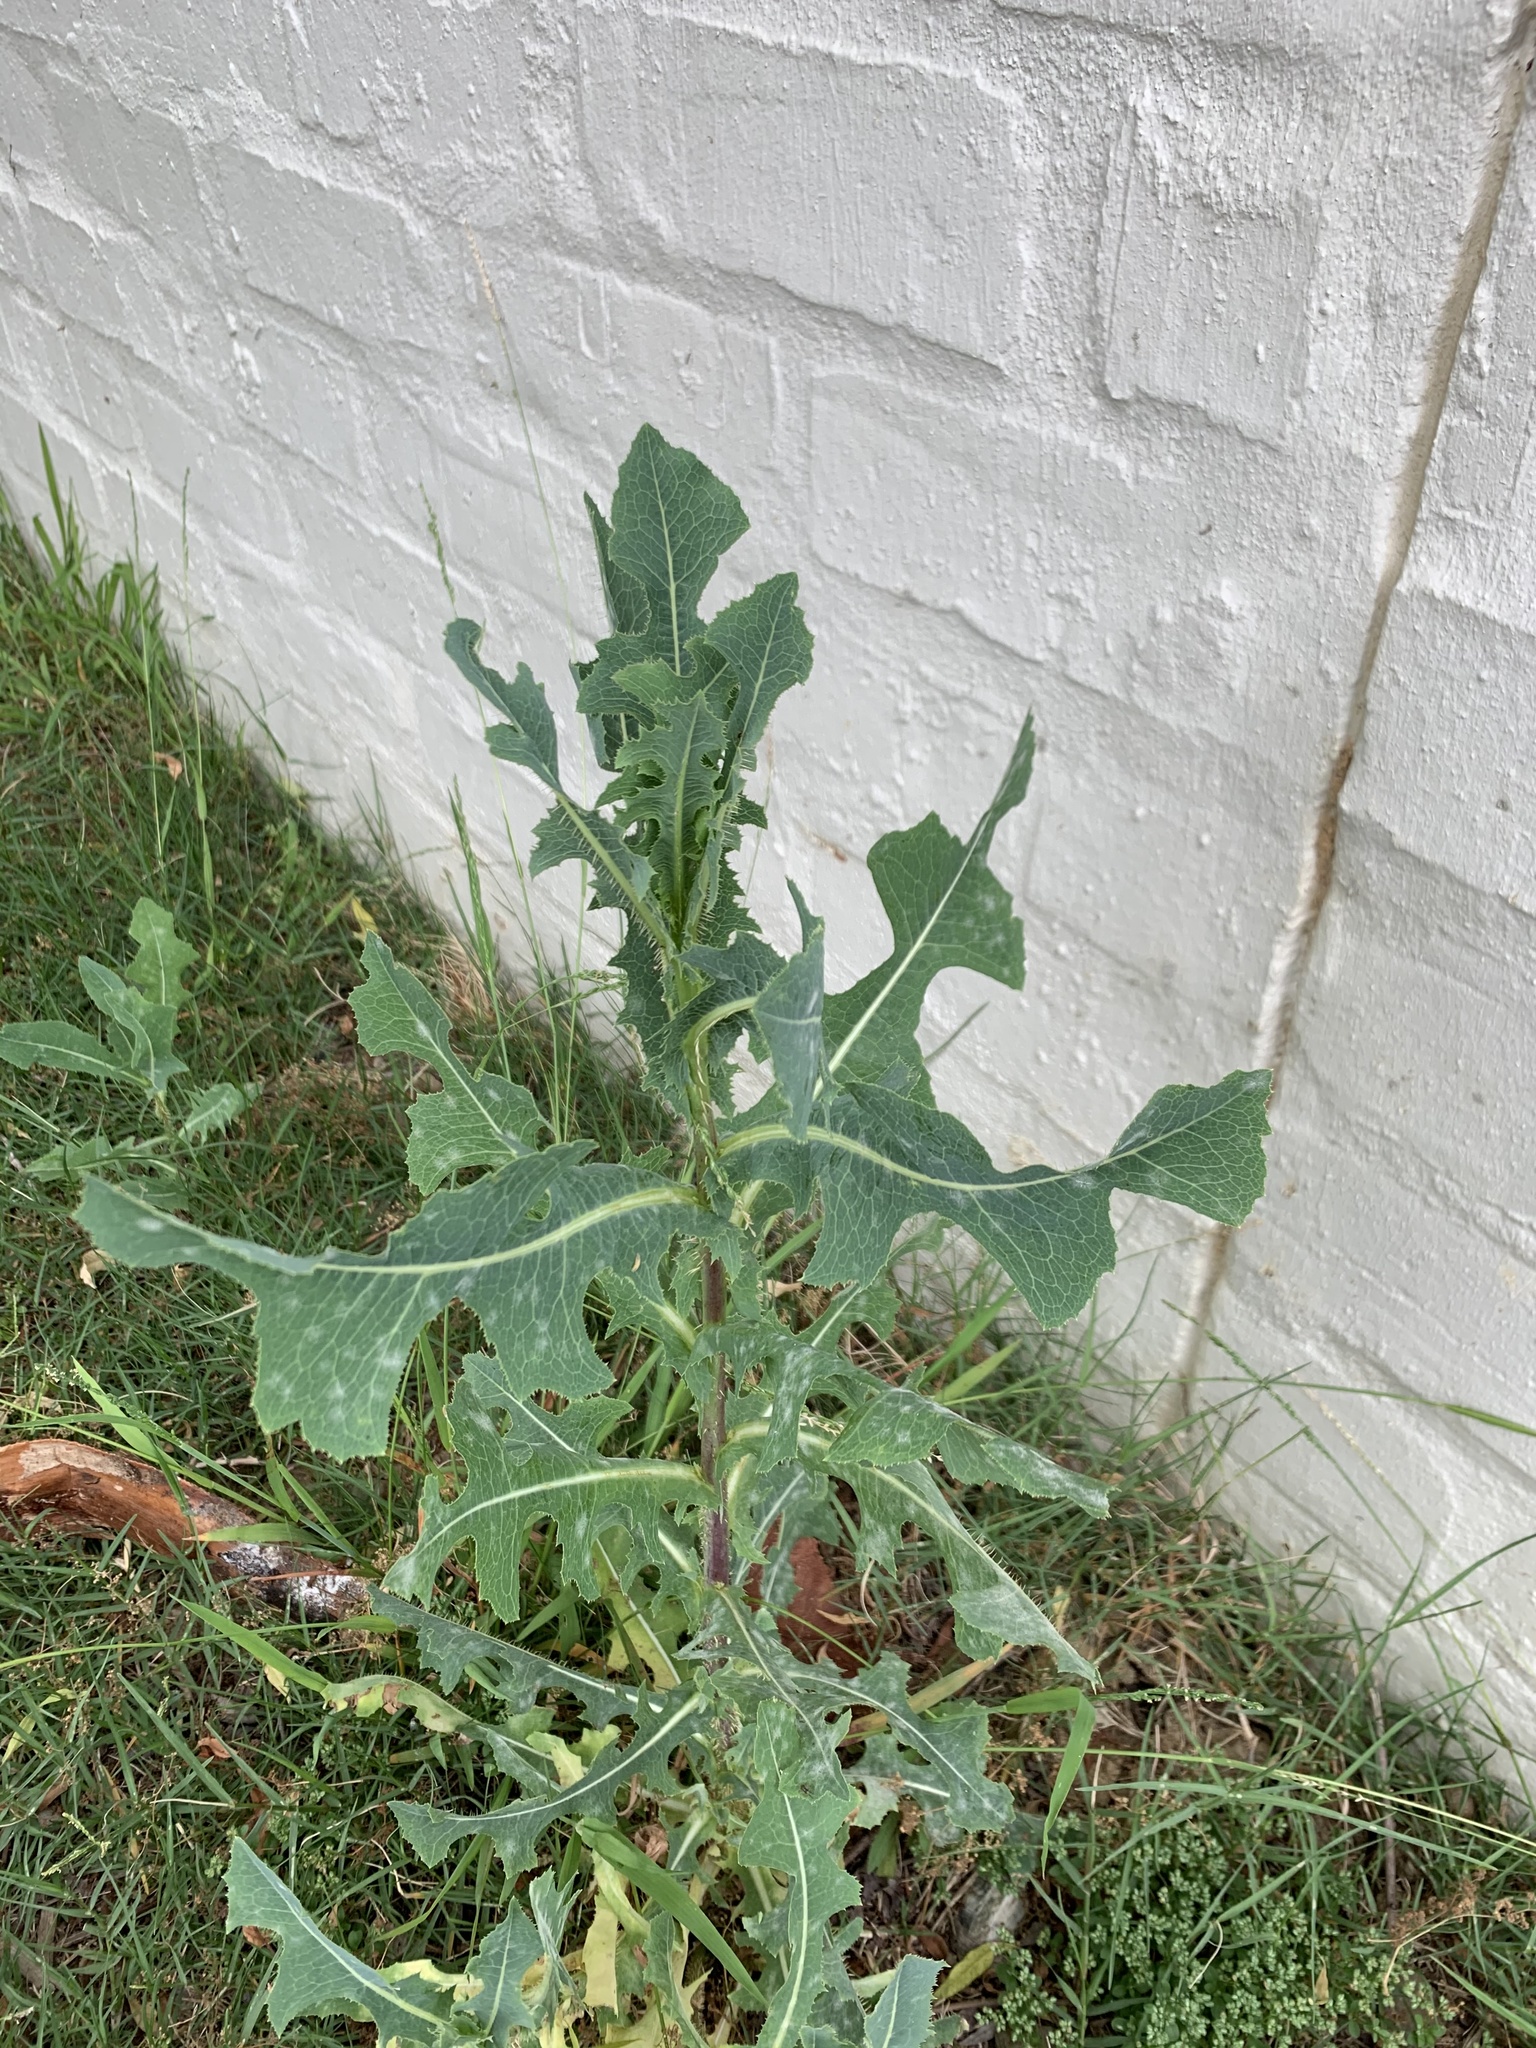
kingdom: Plantae
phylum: Tracheophyta
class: Magnoliopsida
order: Asterales
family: Asteraceae
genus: Lactuca
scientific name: Lactuca serriola
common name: Prickly lettuce
